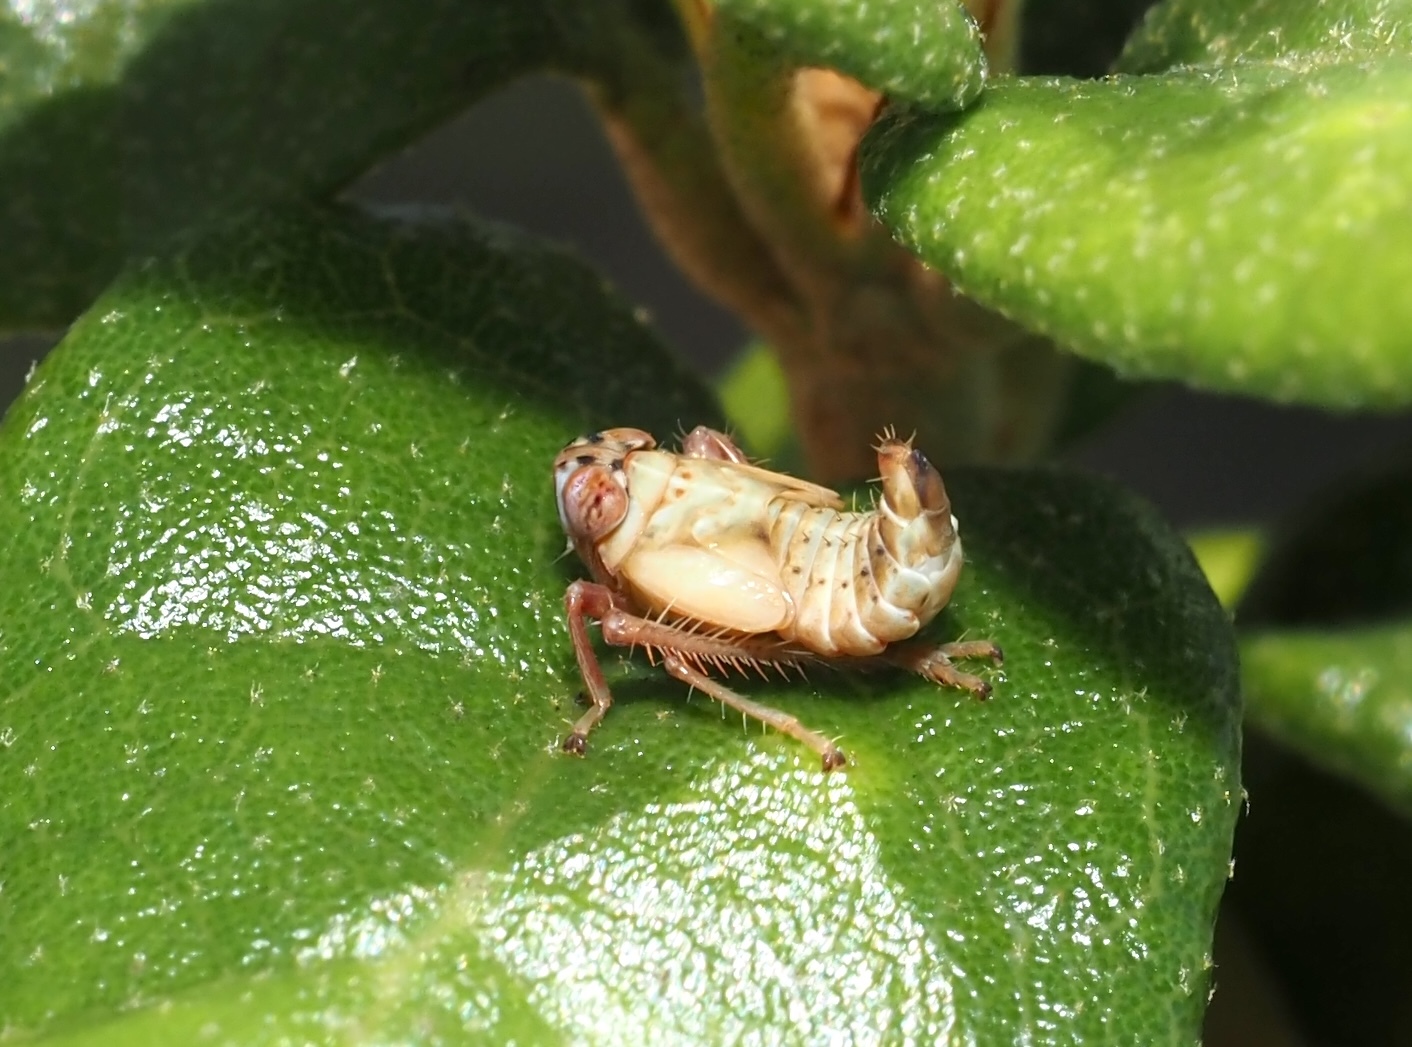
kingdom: Animalia
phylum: Arthropoda
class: Insecta
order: Hemiptera
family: Cicadellidae
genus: Jikradia
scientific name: Jikradia olitoria
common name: Coppery leafhopper
